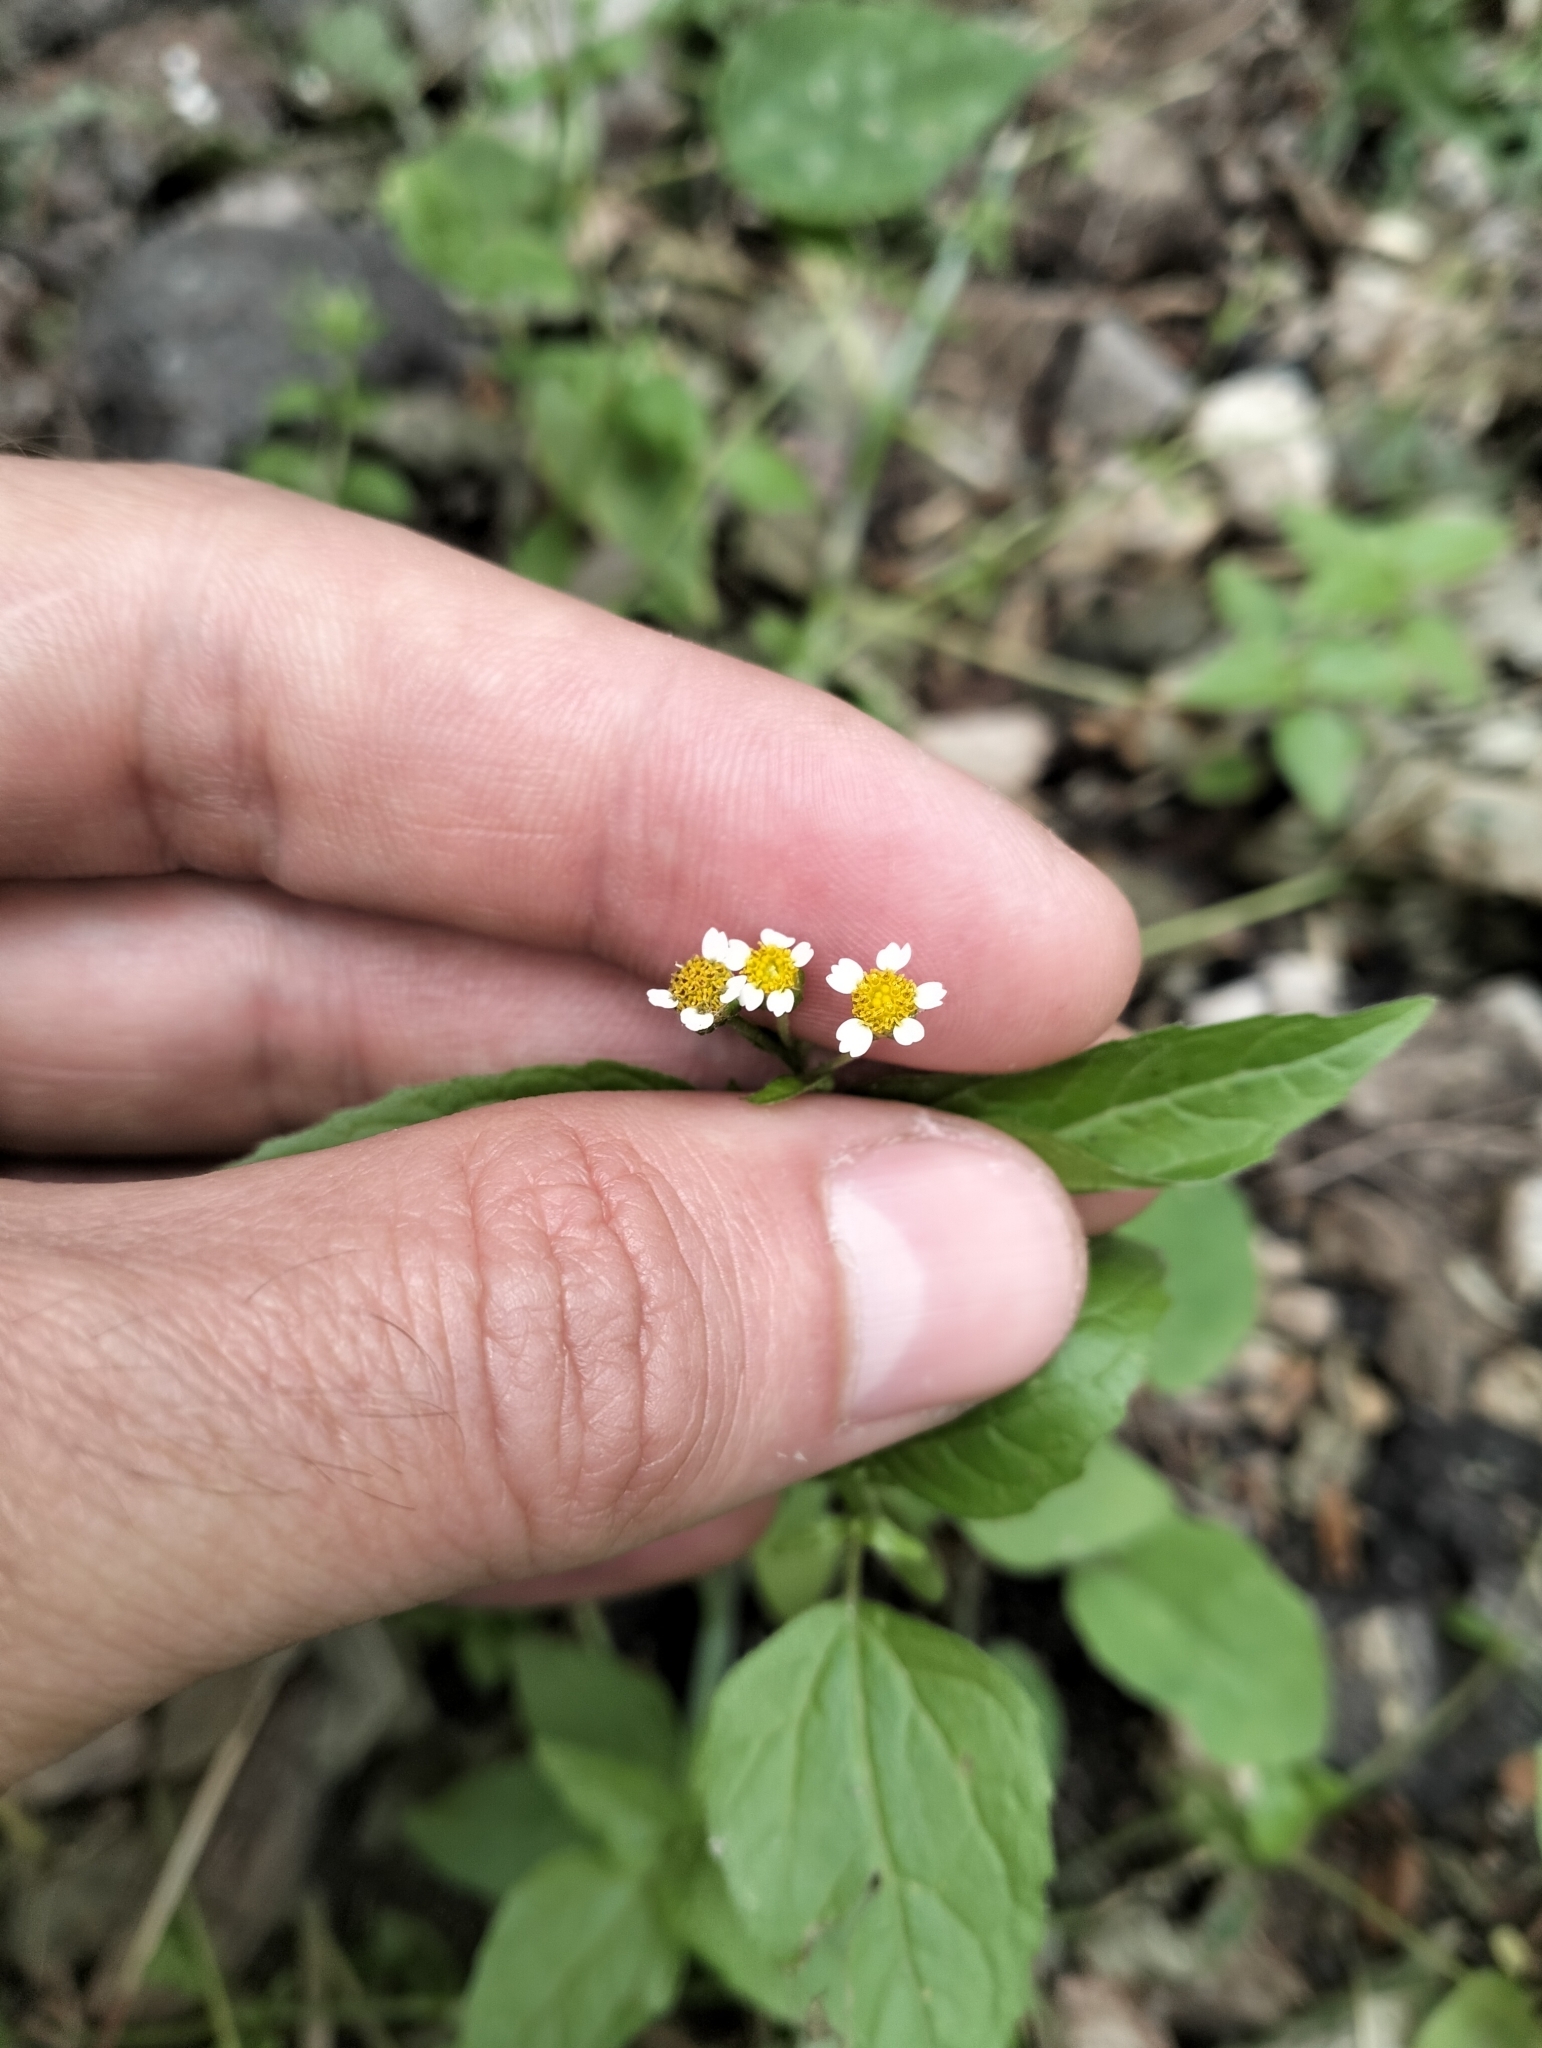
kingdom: Plantae
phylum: Tracheophyta
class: Magnoliopsida
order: Asterales
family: Asteraceae
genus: Galinsoga
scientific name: Galinsoga parviflora
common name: Gallant soldier
